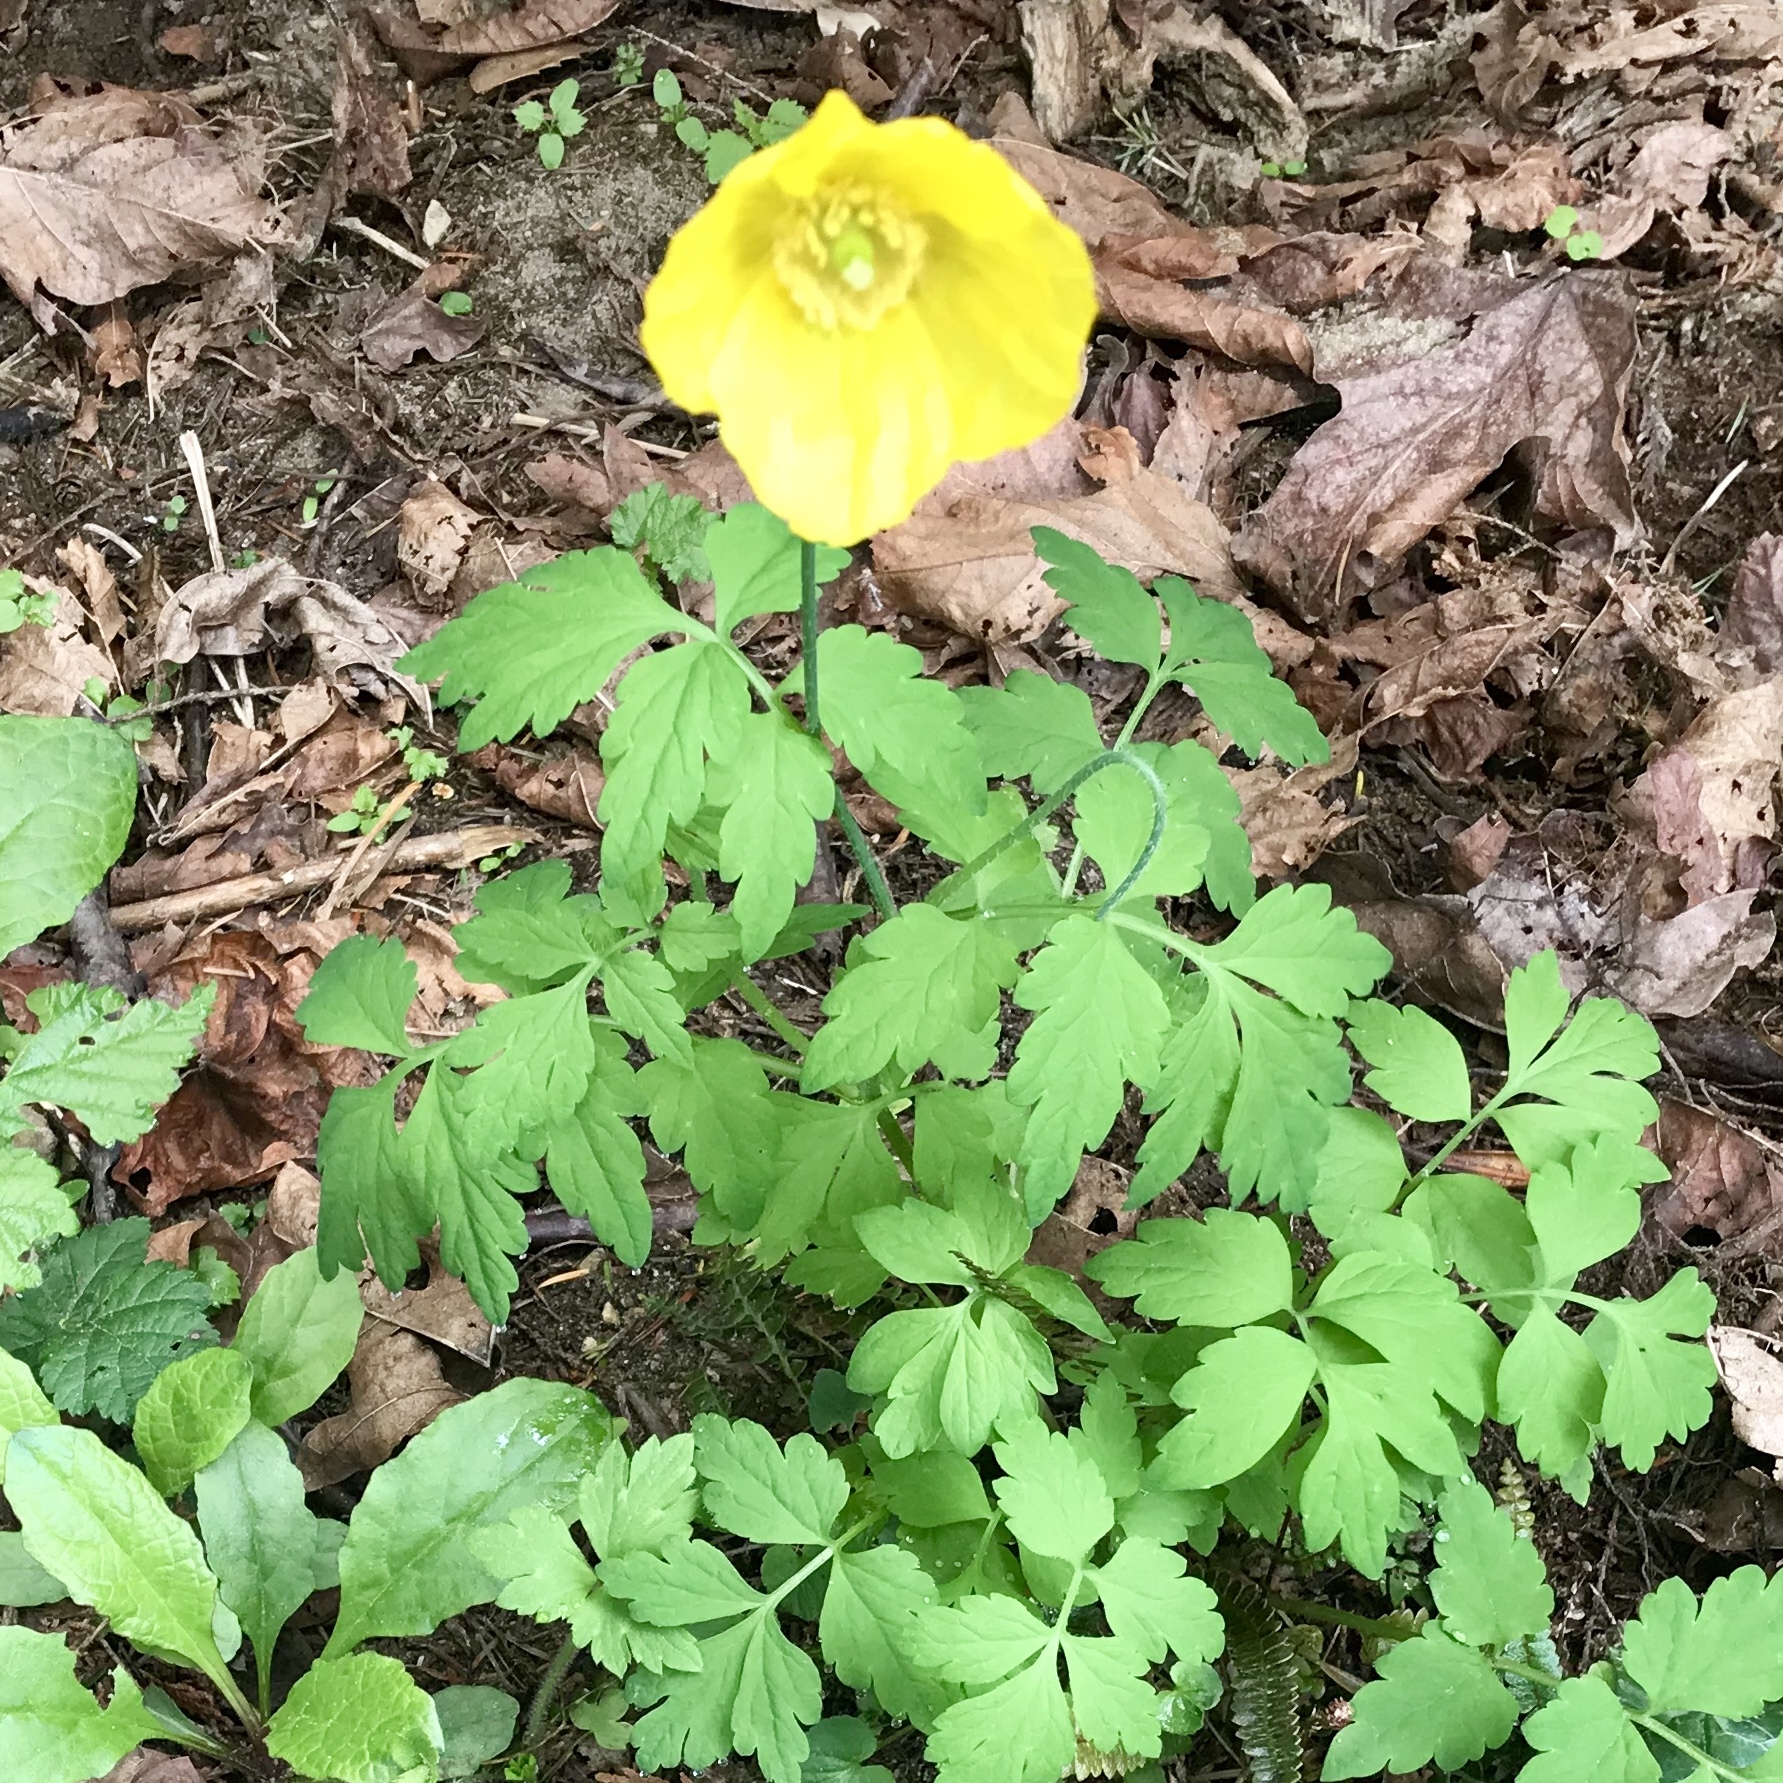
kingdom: Plantae
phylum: Tracheophyta
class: Magnoliopsida
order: Ranunculales
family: Papaveraceae
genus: Papaver
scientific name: Papaver cambricum
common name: Poppy
